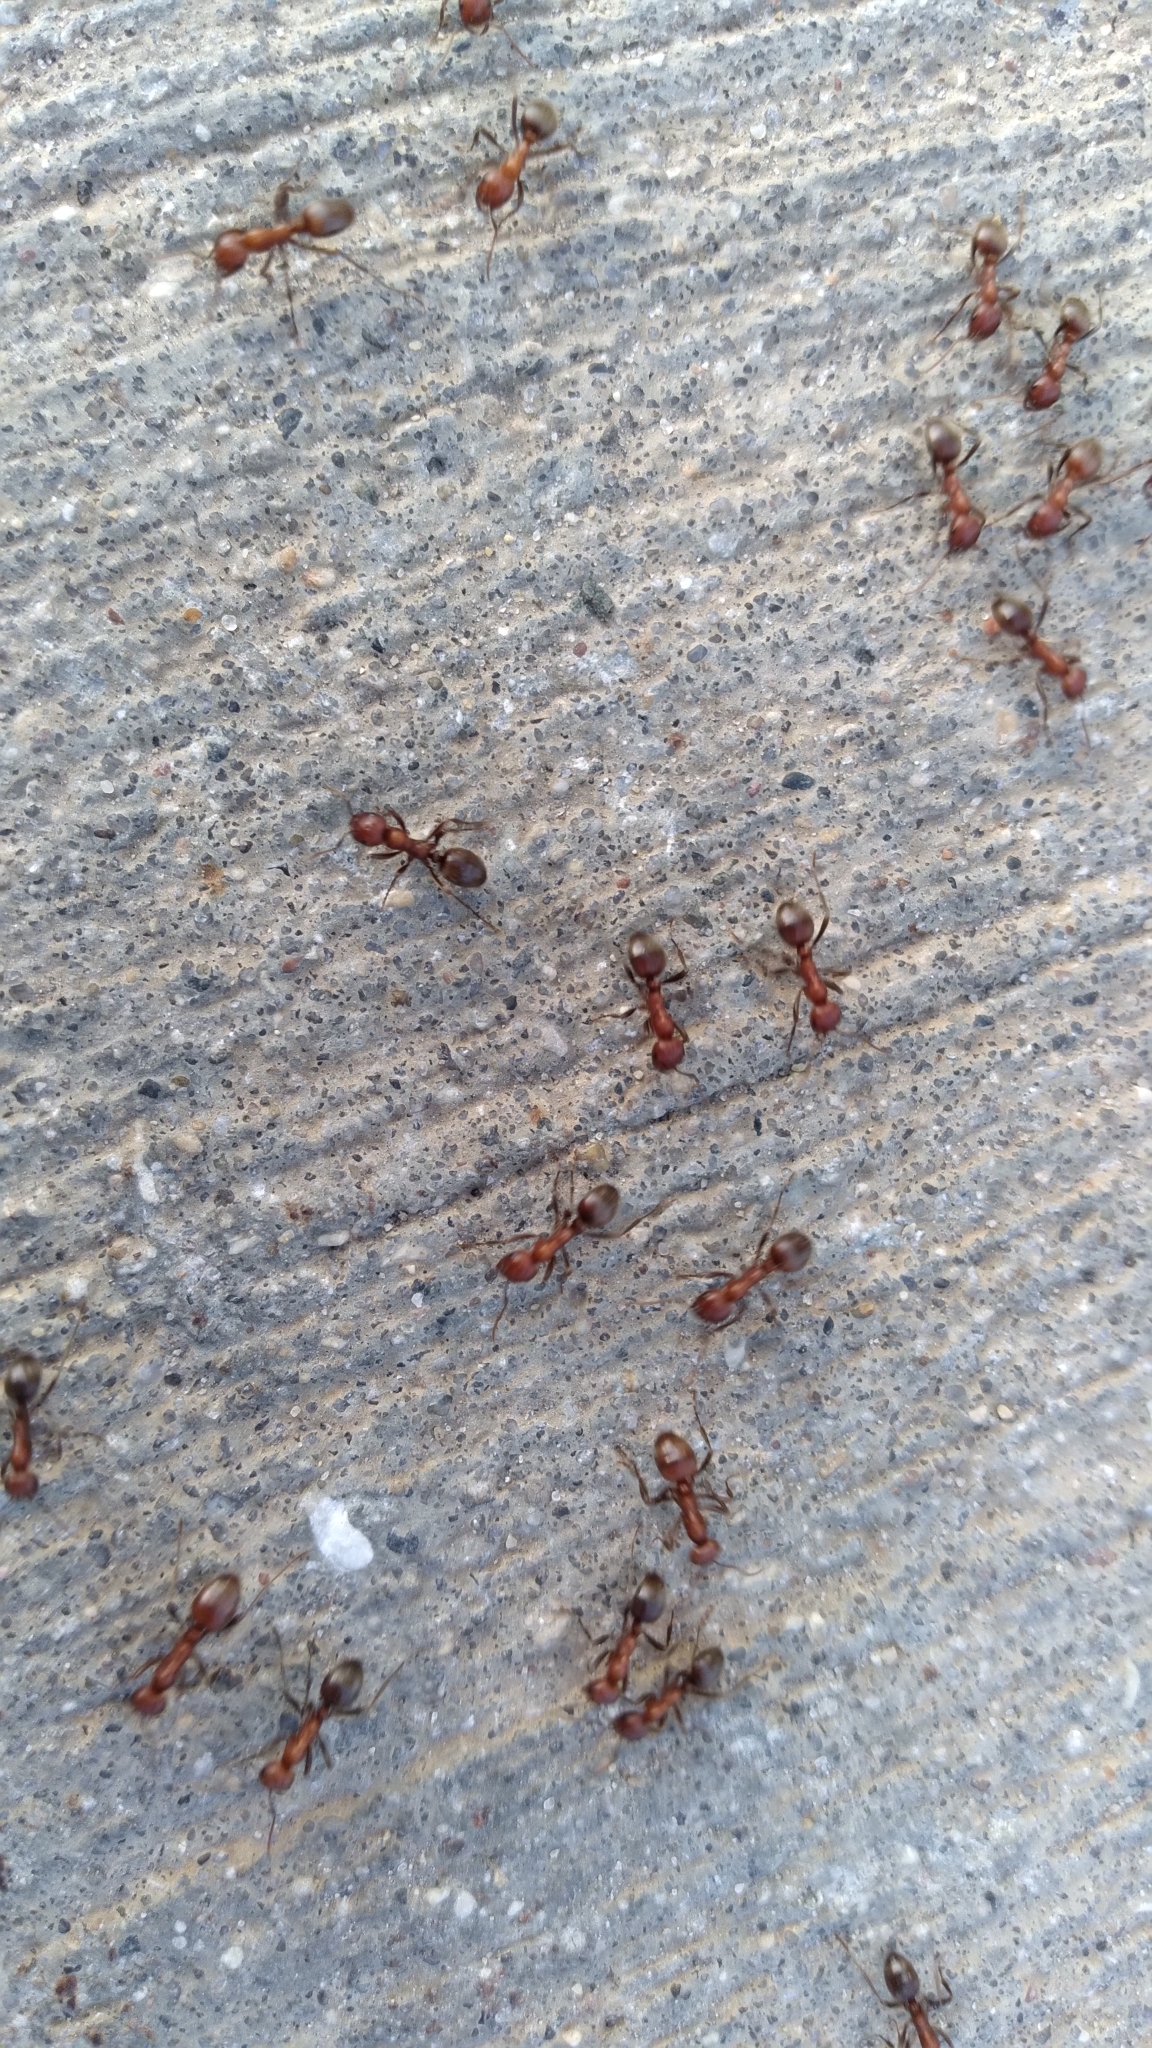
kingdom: Animalia
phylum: Arthropoda
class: Insecta
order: Hymenoptera
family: Formicidae
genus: Polyergus
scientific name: Polyergus bicolor
